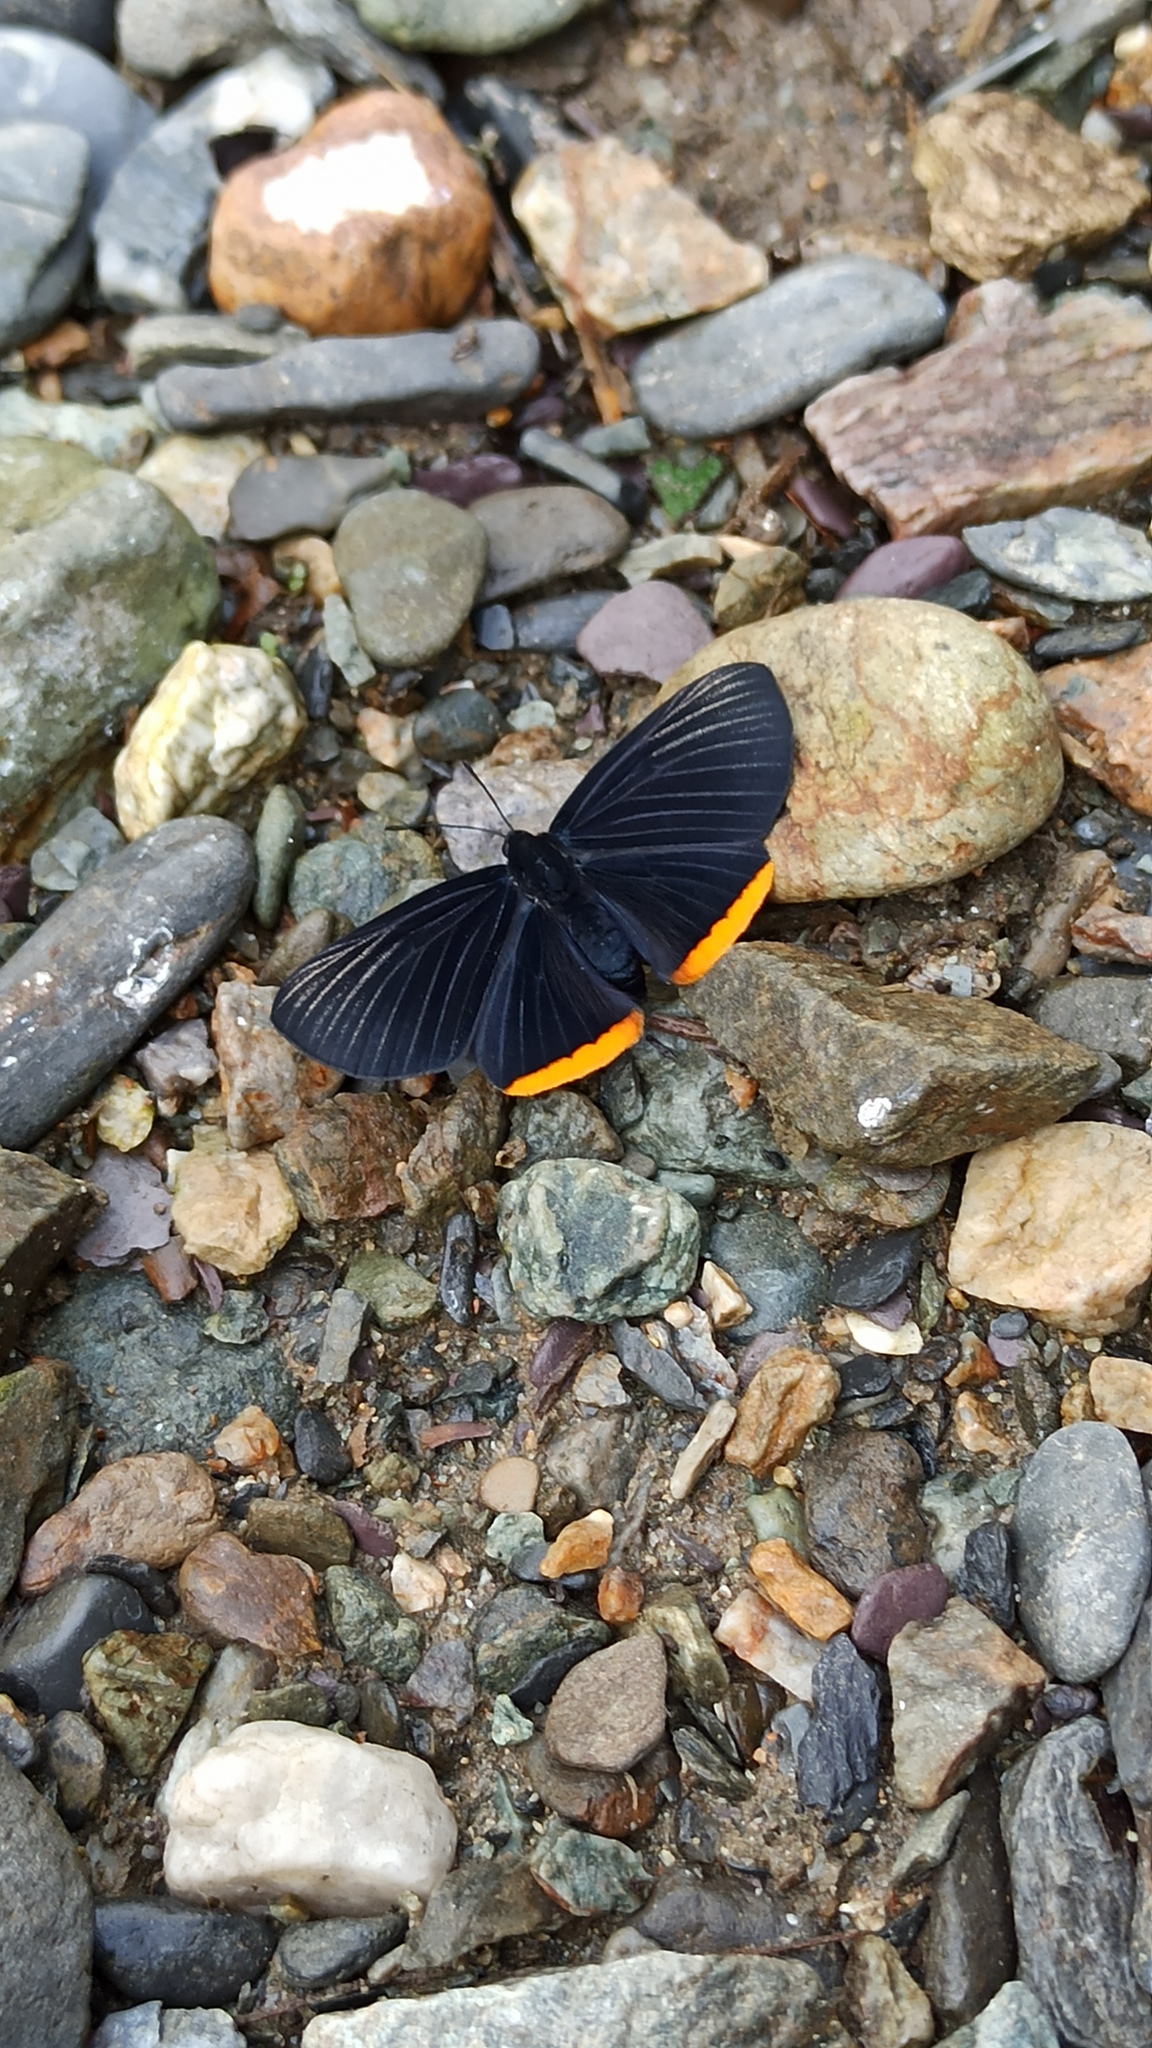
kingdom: Animalia
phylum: Arthropoda
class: Insecta
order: Lepidoptera
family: Lycaenidae
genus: Melanis
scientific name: Melanis
